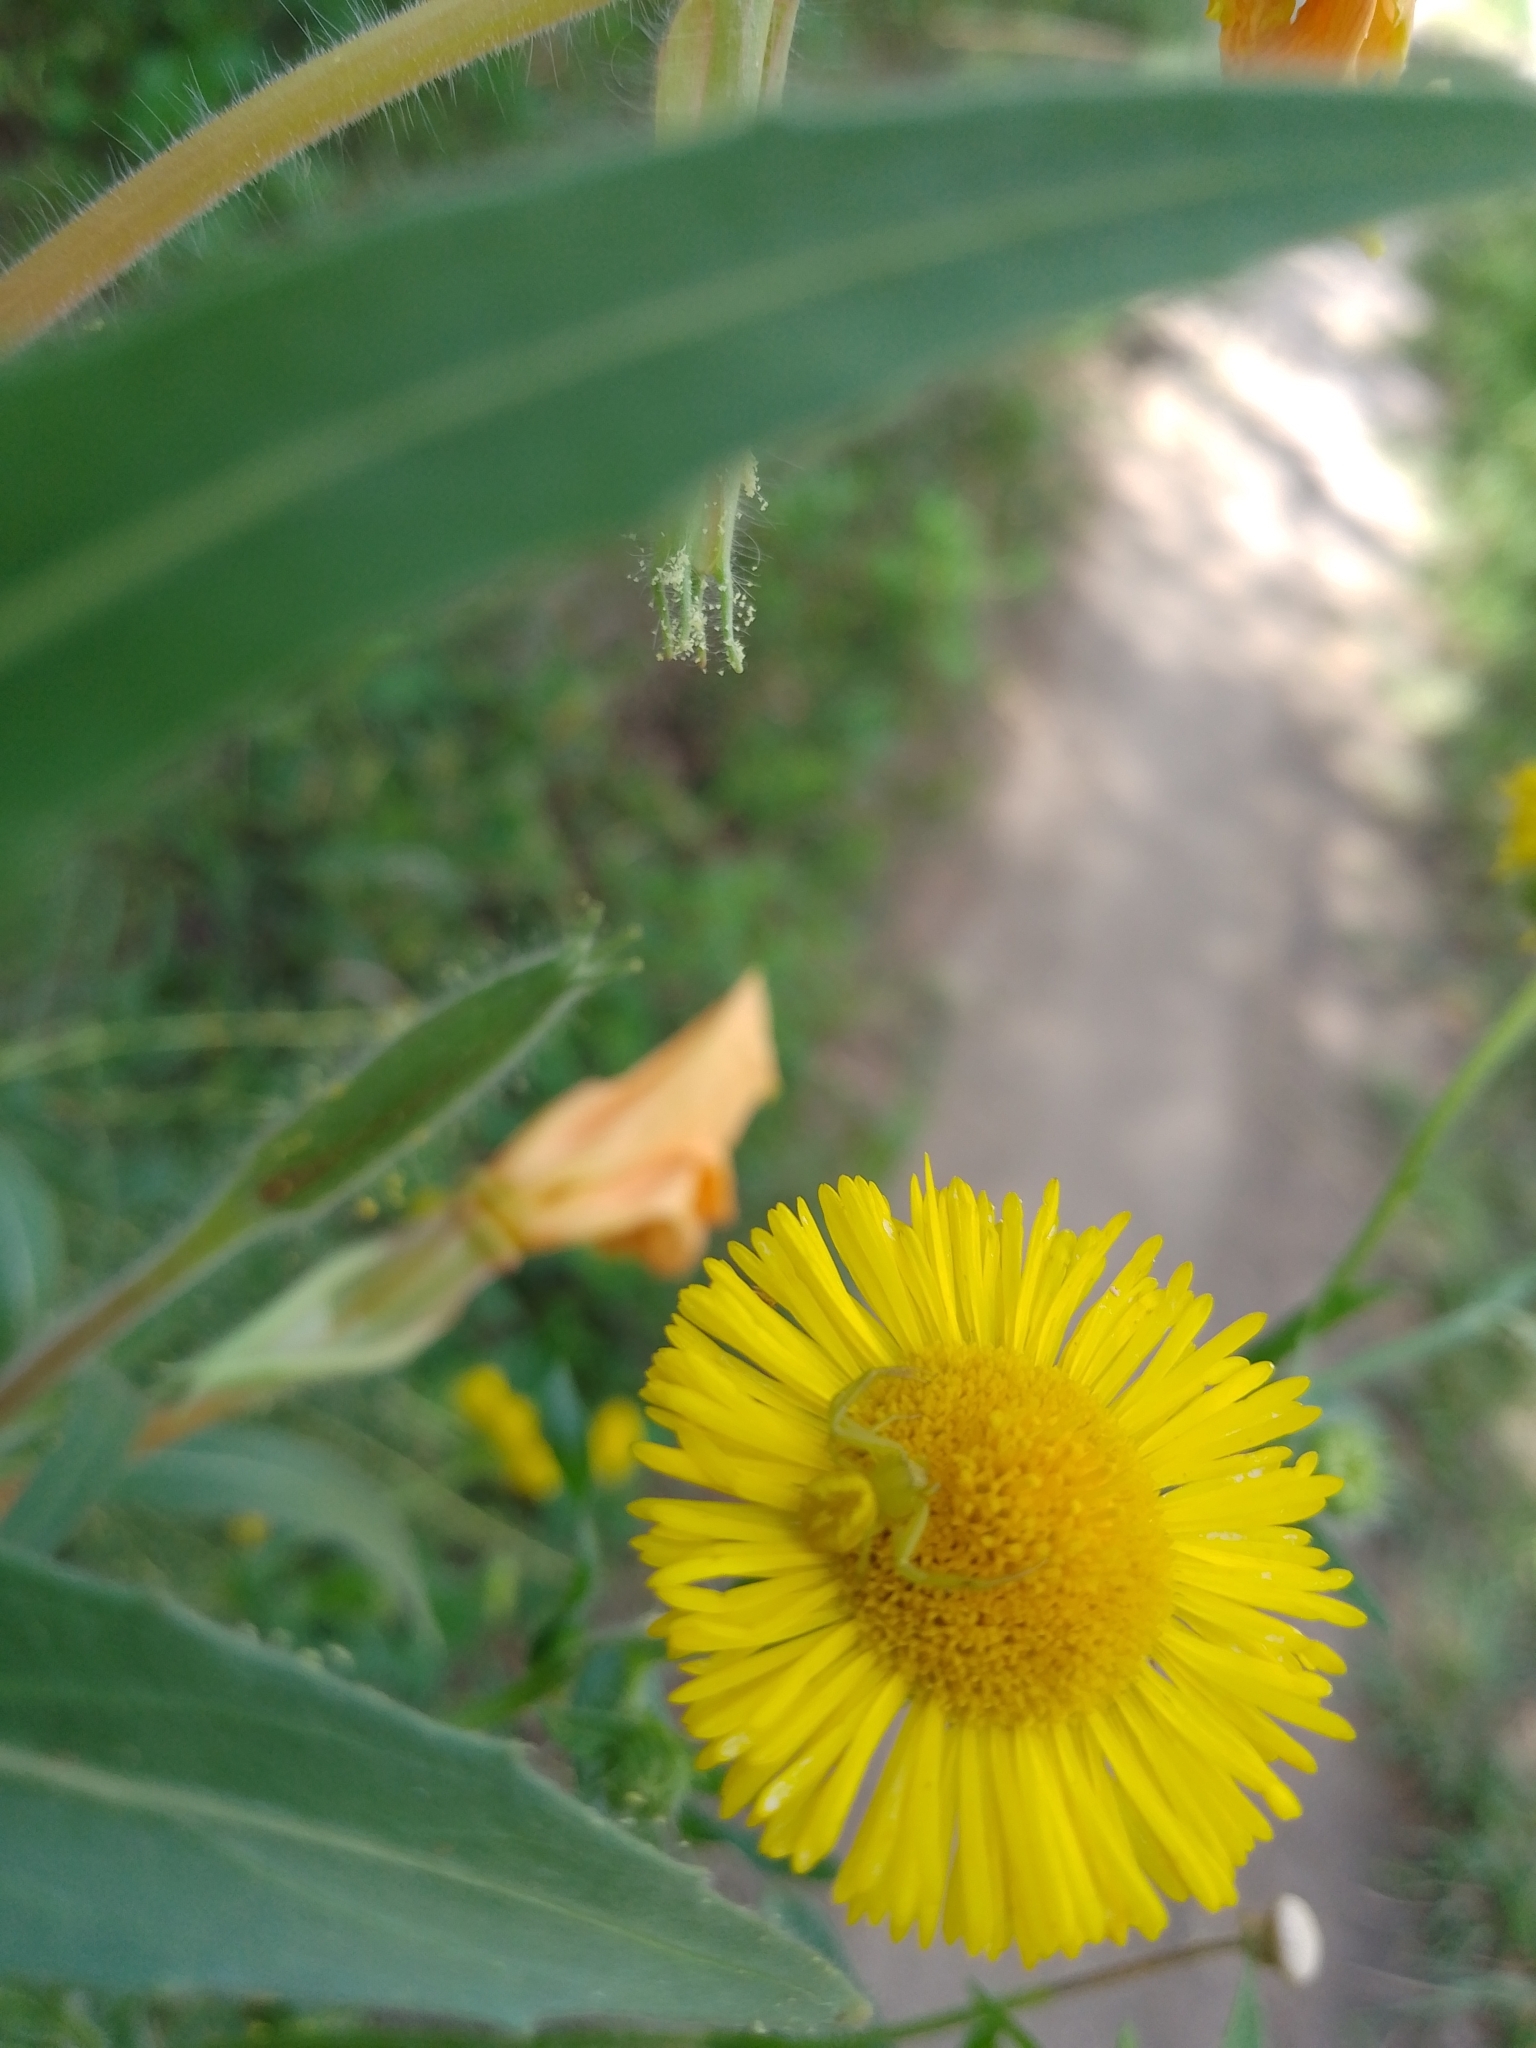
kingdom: Animalia
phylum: Arthropoda
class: Arachnida
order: Araneae
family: Thomisidae
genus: Misumenops
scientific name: Misumenops
